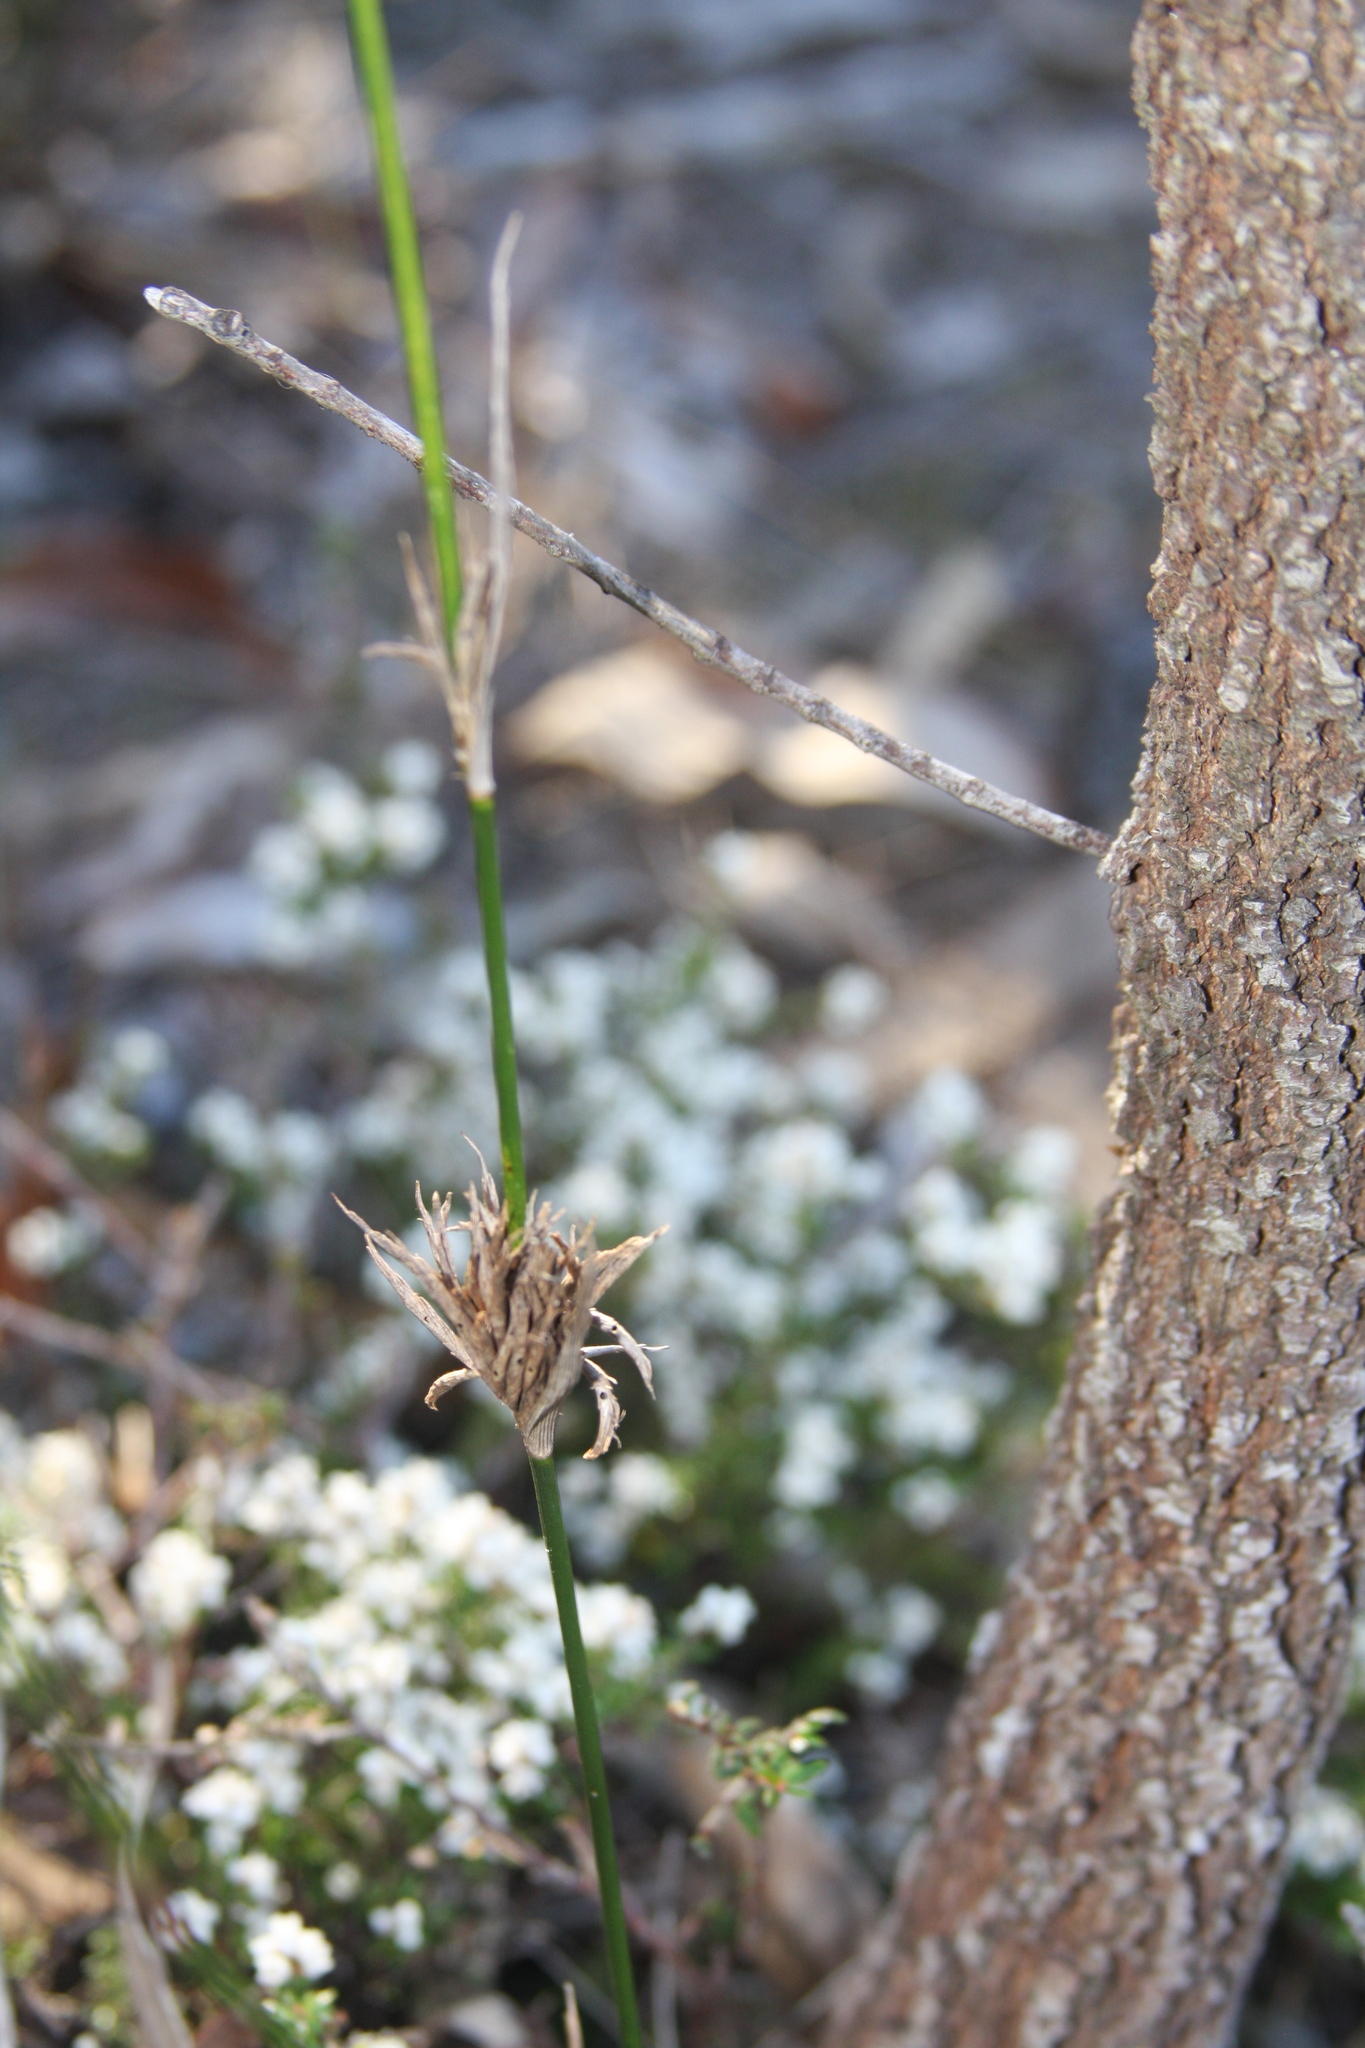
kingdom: Plantae
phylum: Tracheophyta
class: Liliopsida
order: Poales
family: Poaceae
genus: Entolasia
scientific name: Entolasia stricta
